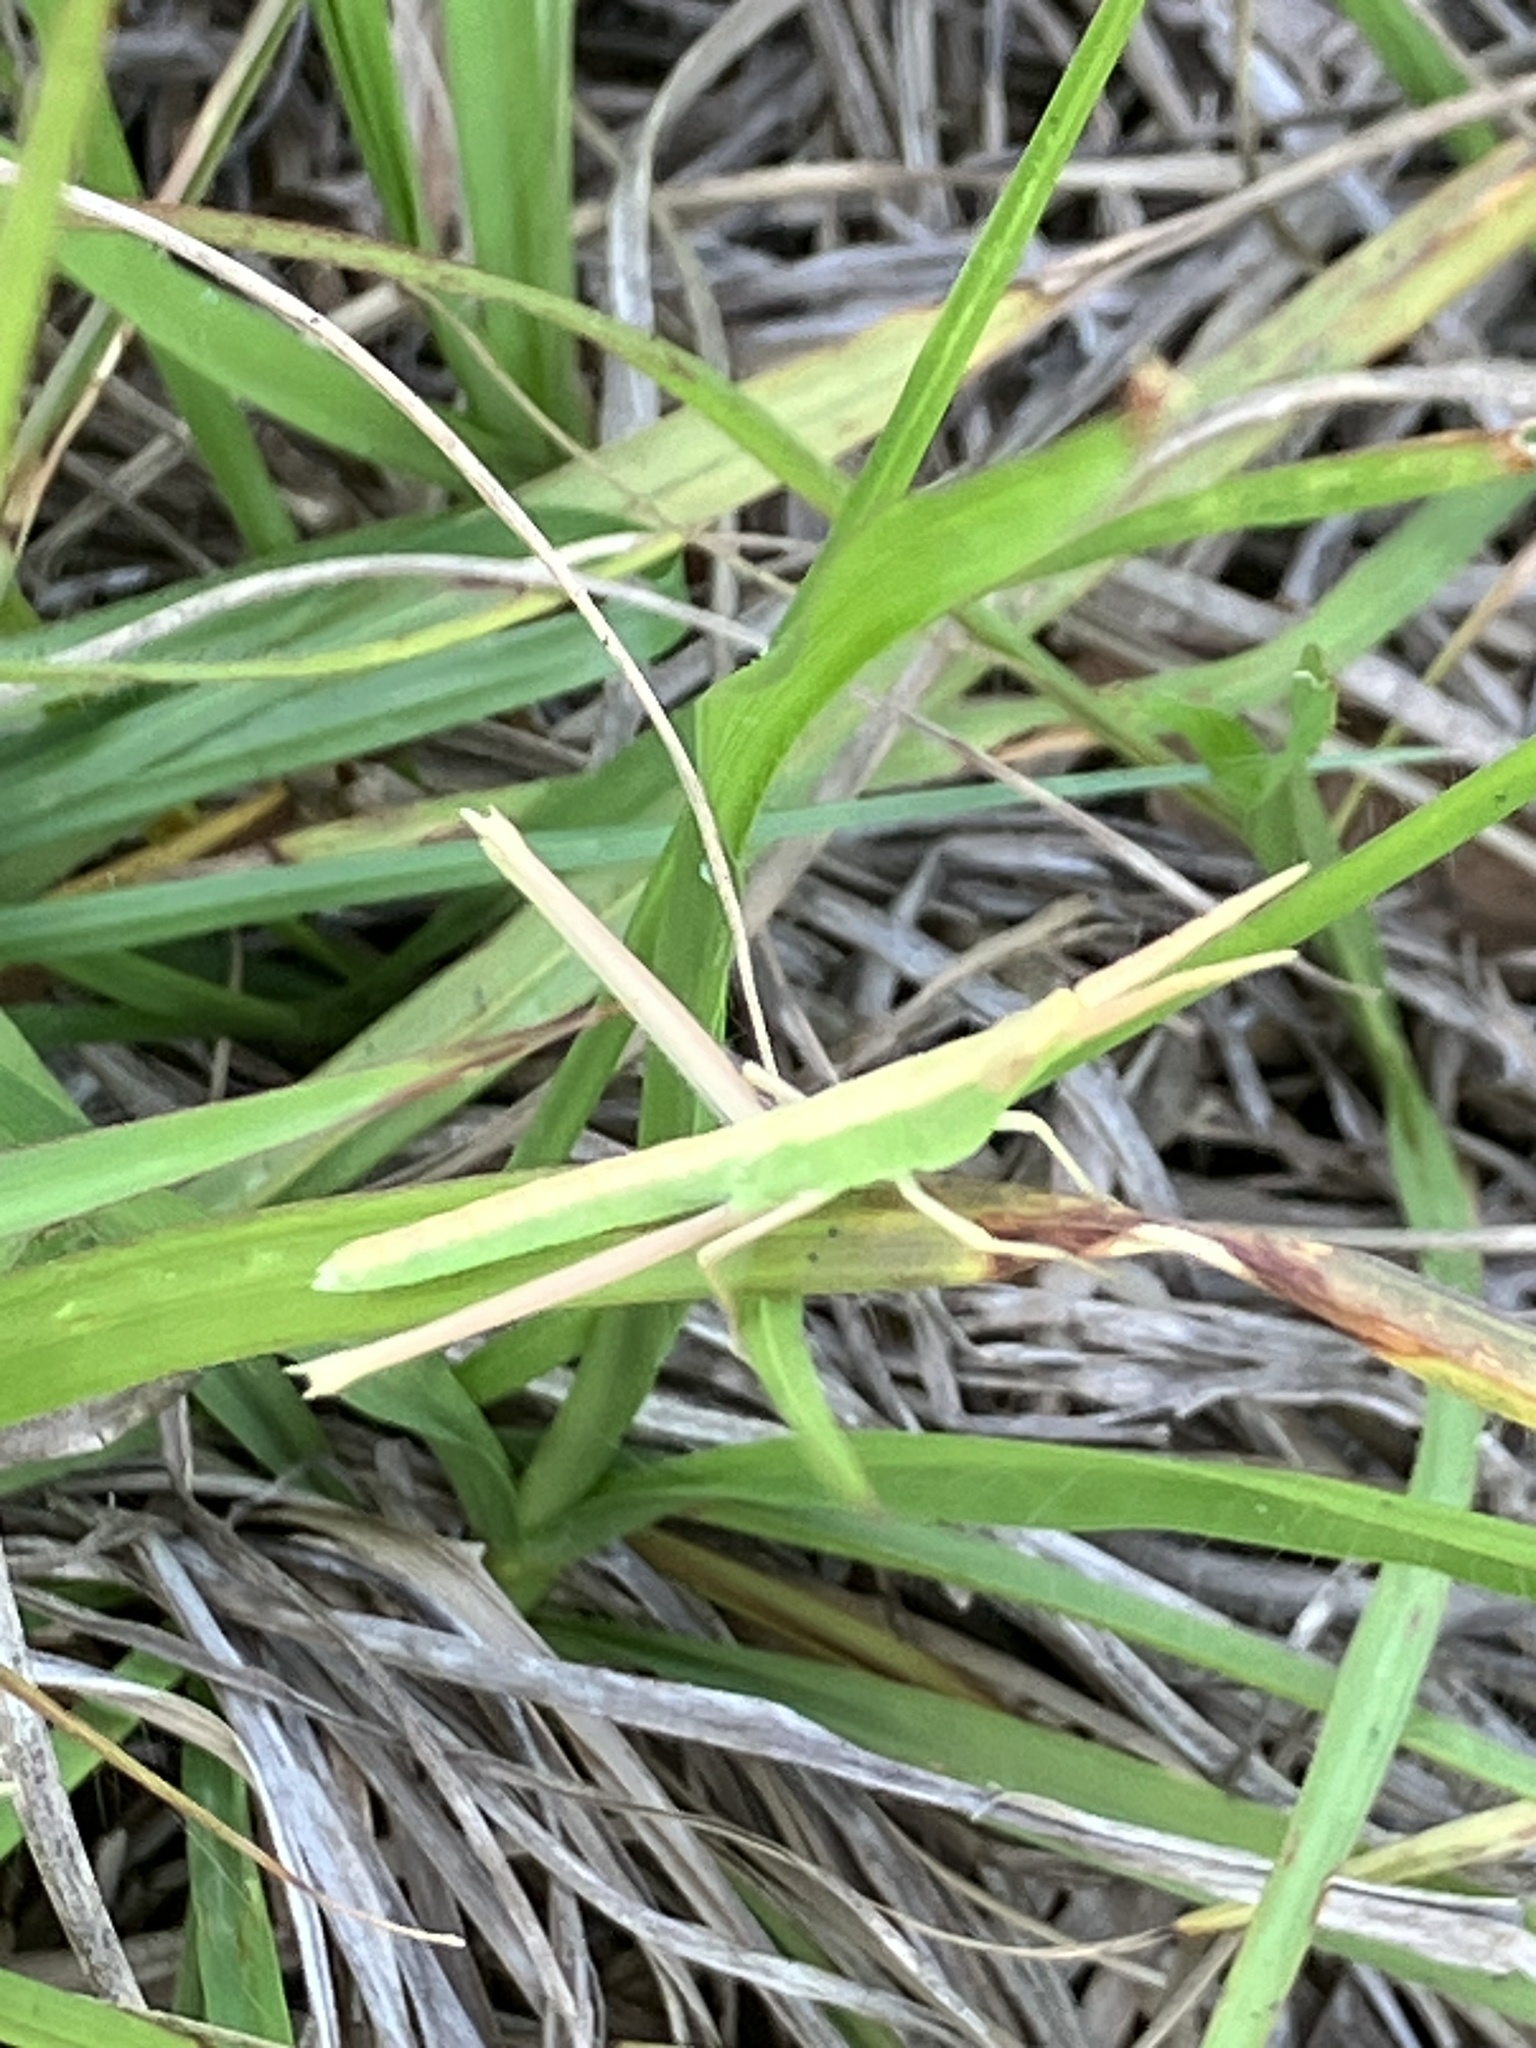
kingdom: Animalia
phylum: Arthropoda
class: Insecta
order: Orthoptera
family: Acrididae
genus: Achurum
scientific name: Achurum carinatum
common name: Long-headed toothpick grasshopper
